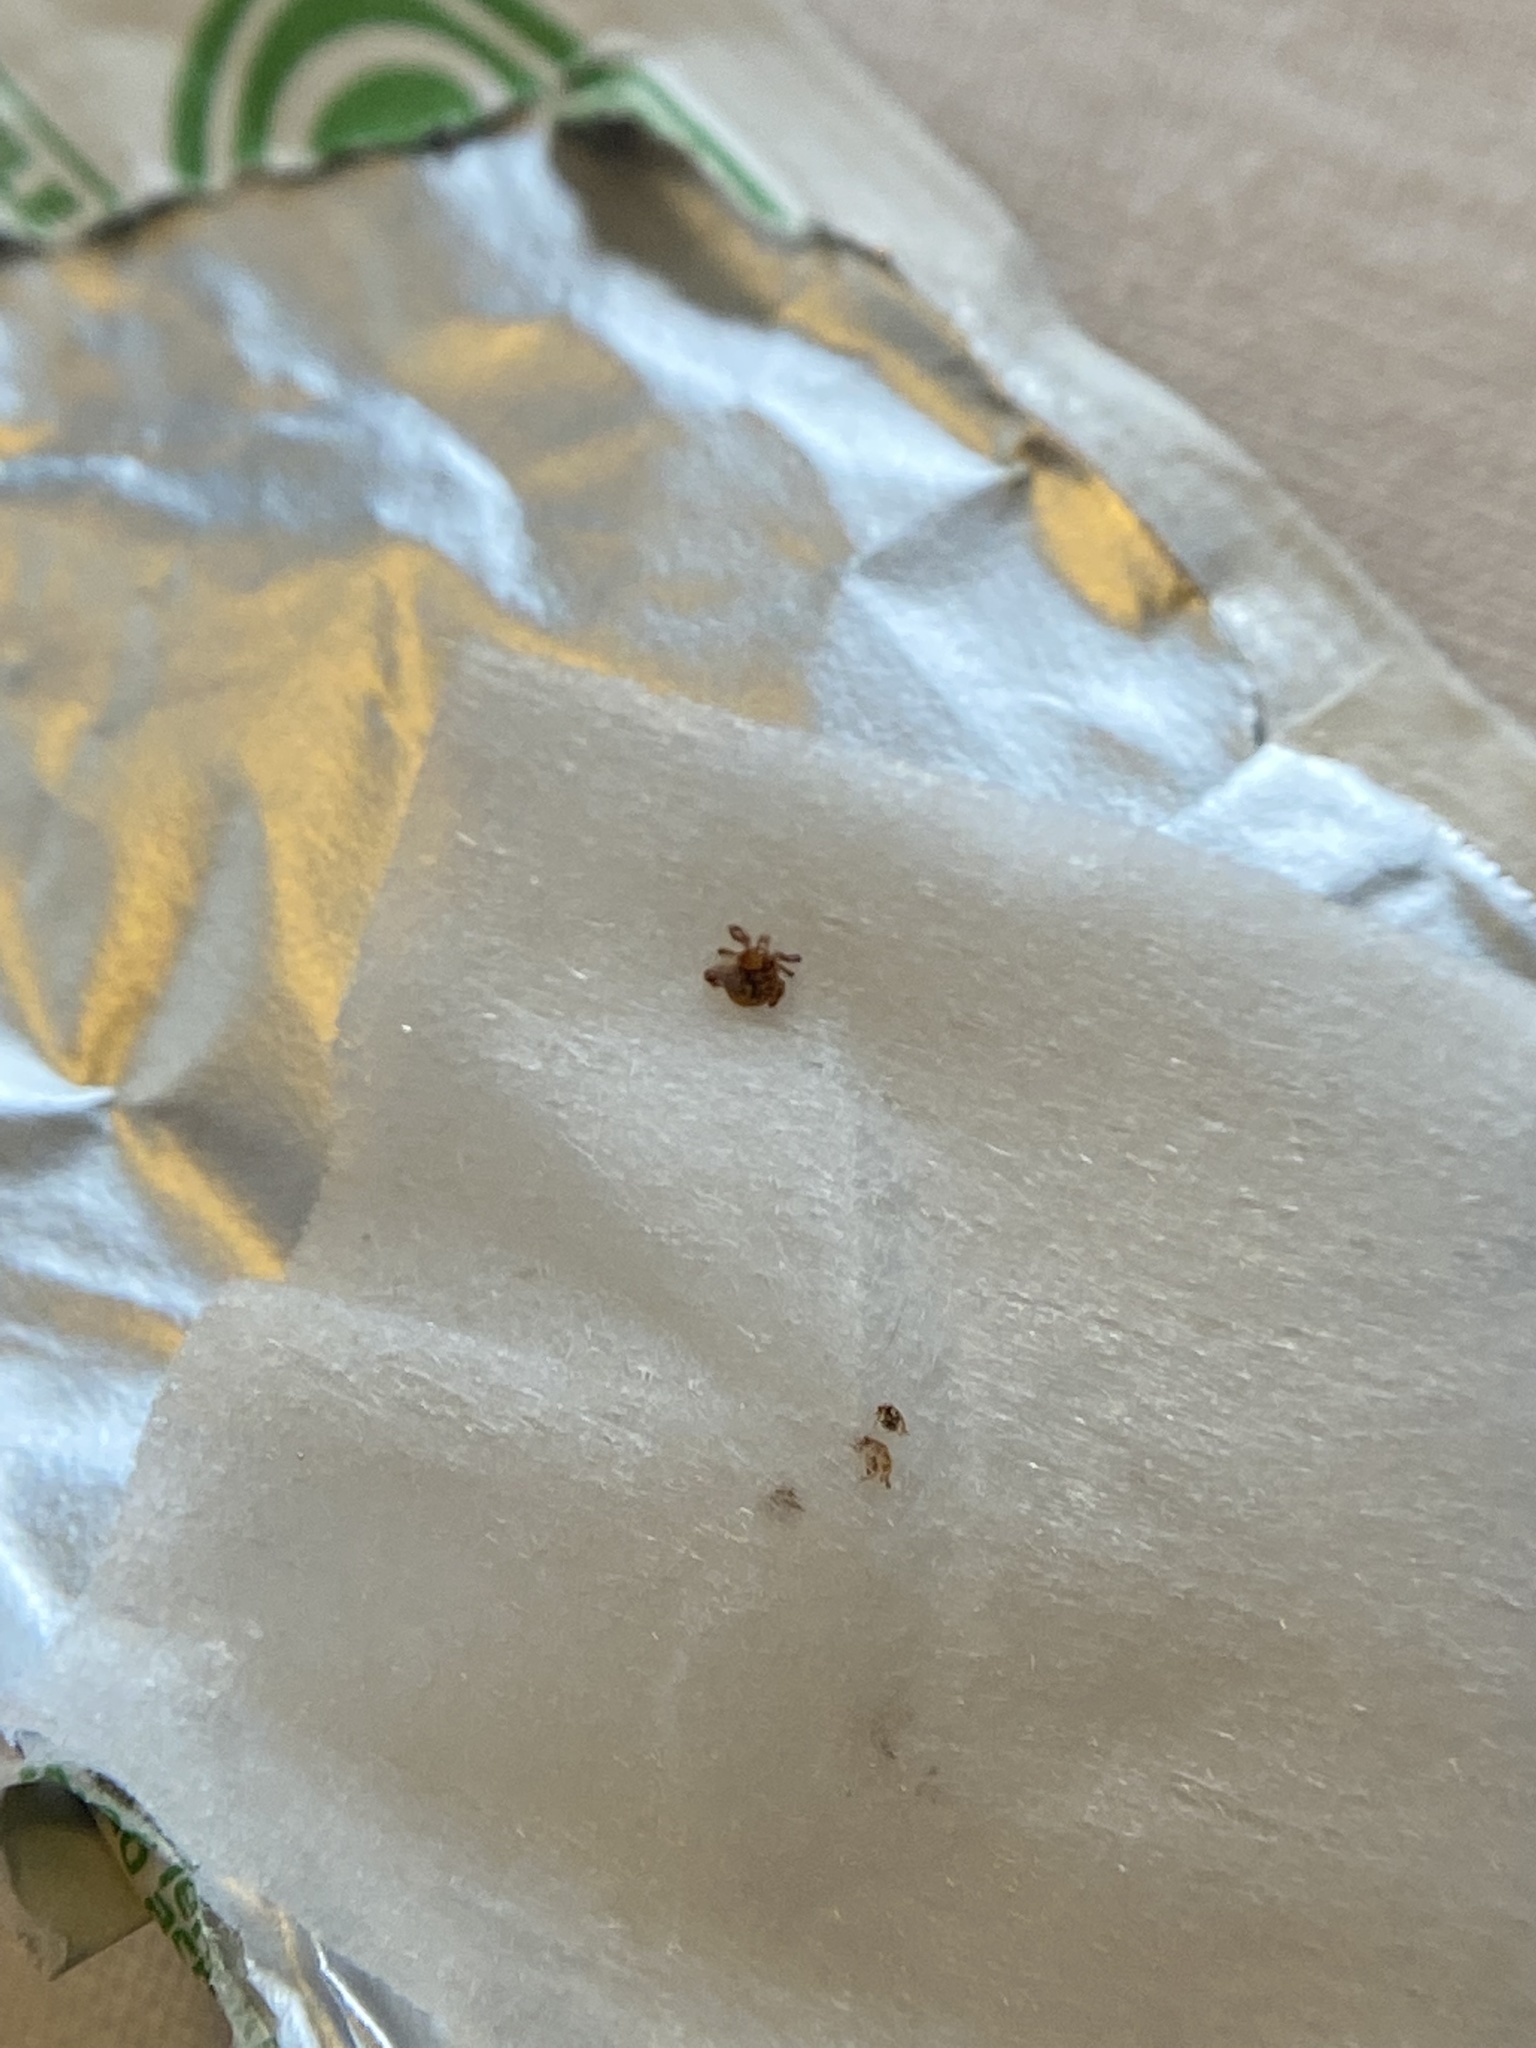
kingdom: Animalia
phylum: Arthropoda
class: Arachnida
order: Ixodida
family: Ixodidae
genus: Amblyomma
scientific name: Amblyomma americanum
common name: Lone star tick
